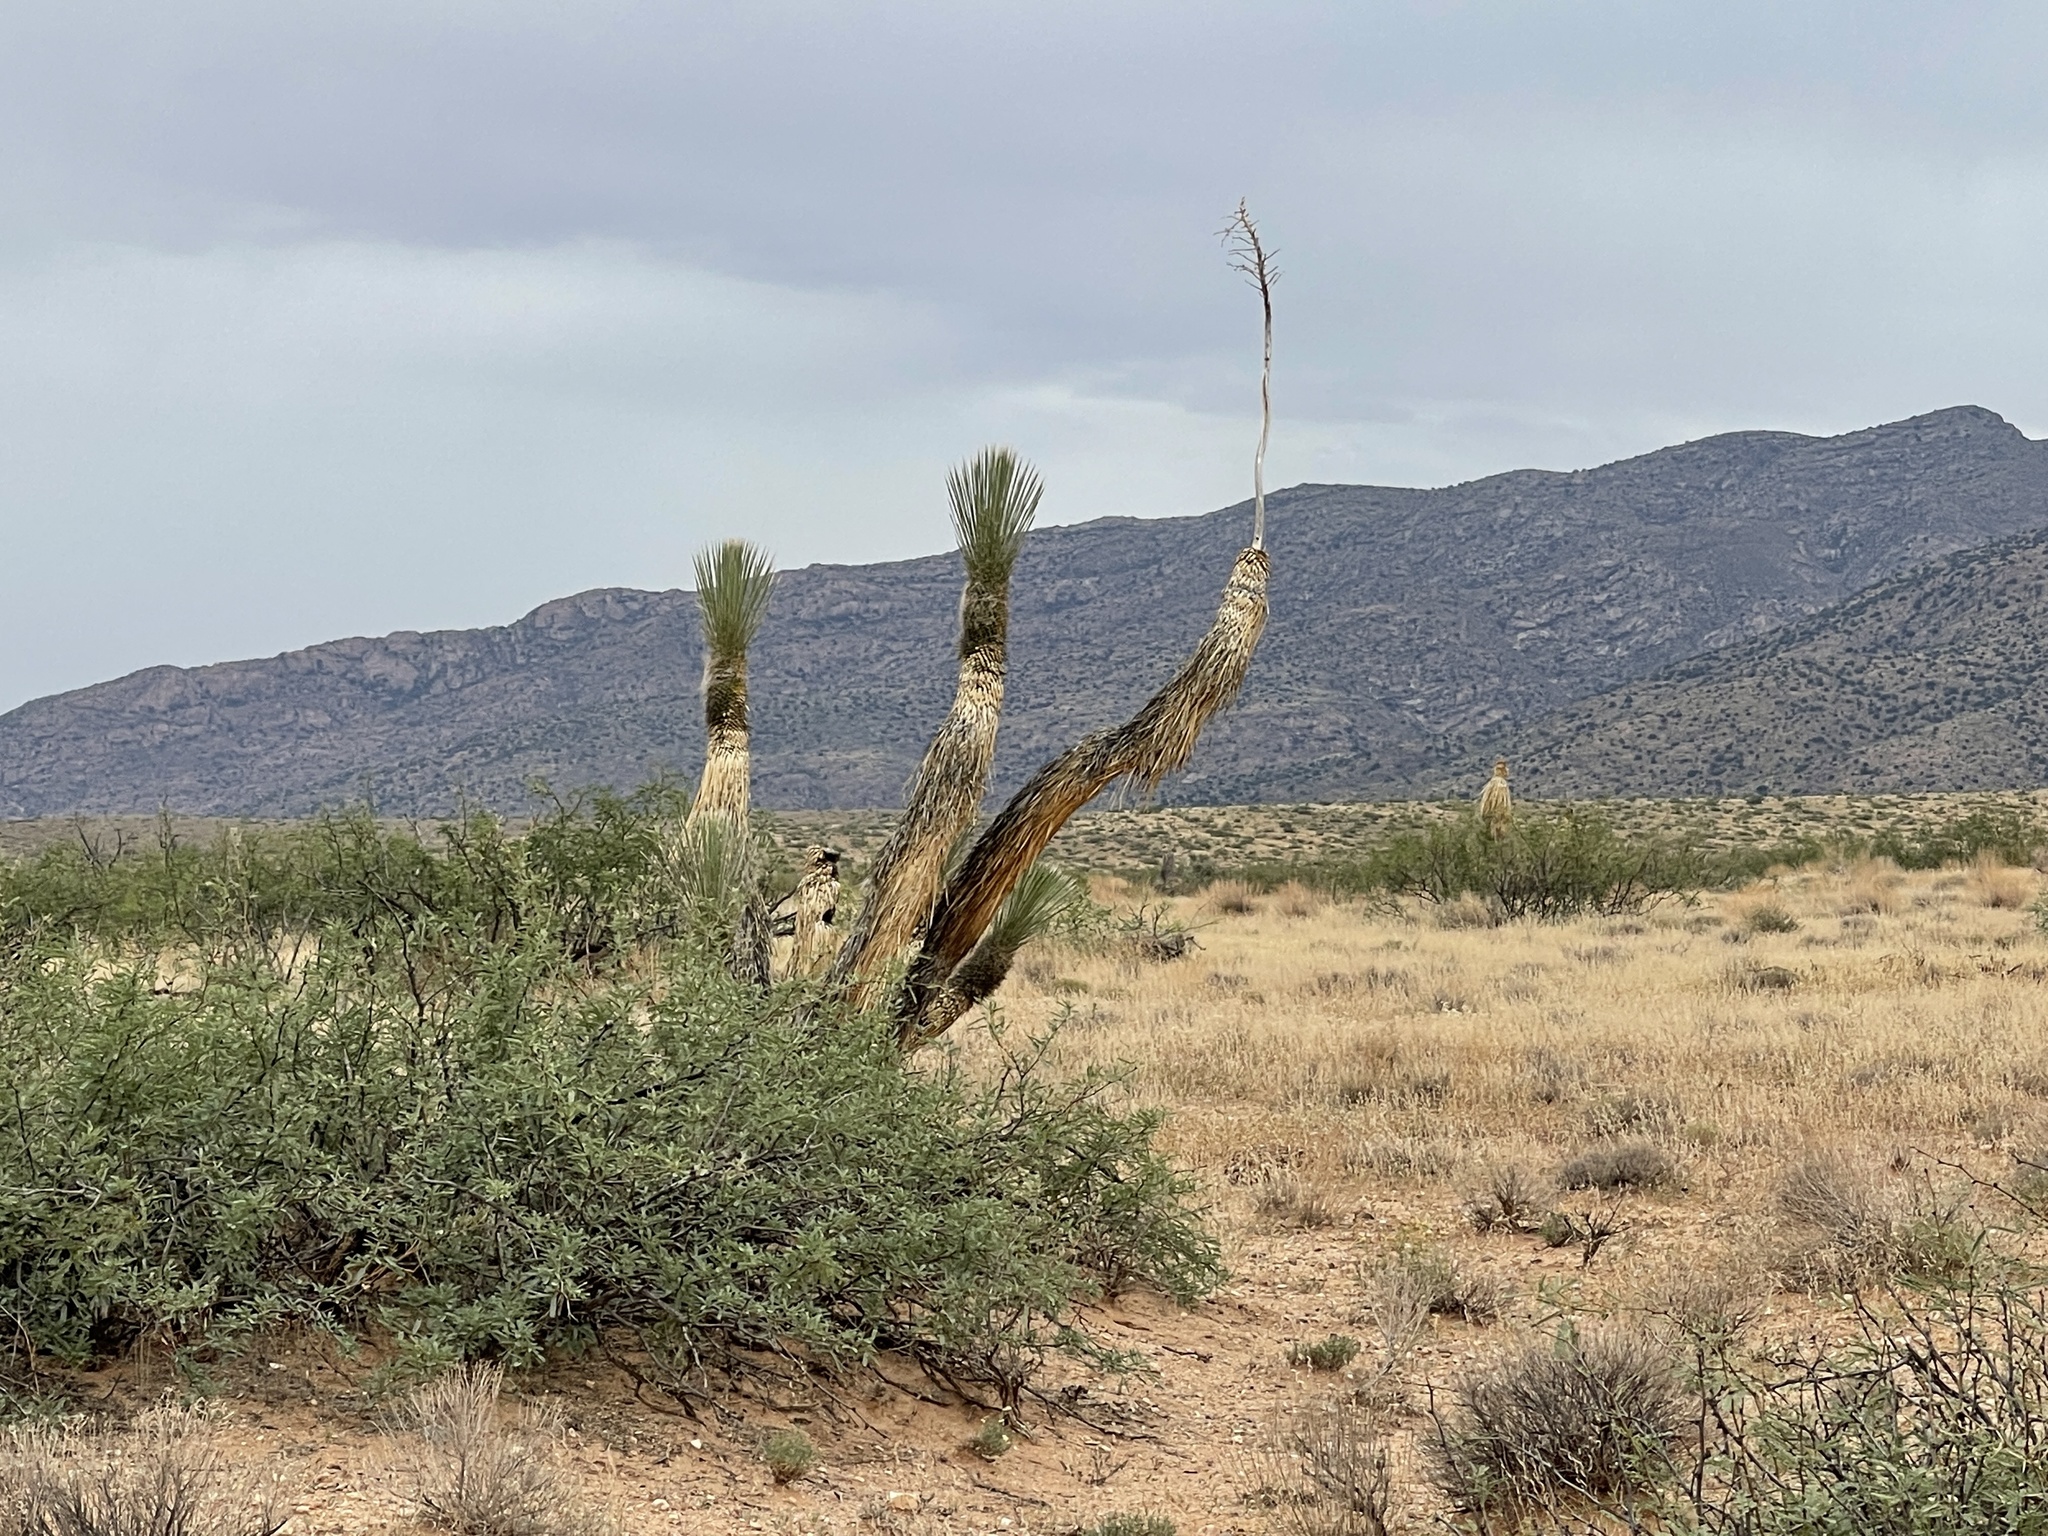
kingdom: Plantae
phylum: Tracheophyta
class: Liliopsida
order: Asparagales
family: Asparagaceae
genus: Yucca
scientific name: Yucca elata
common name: Palmella
